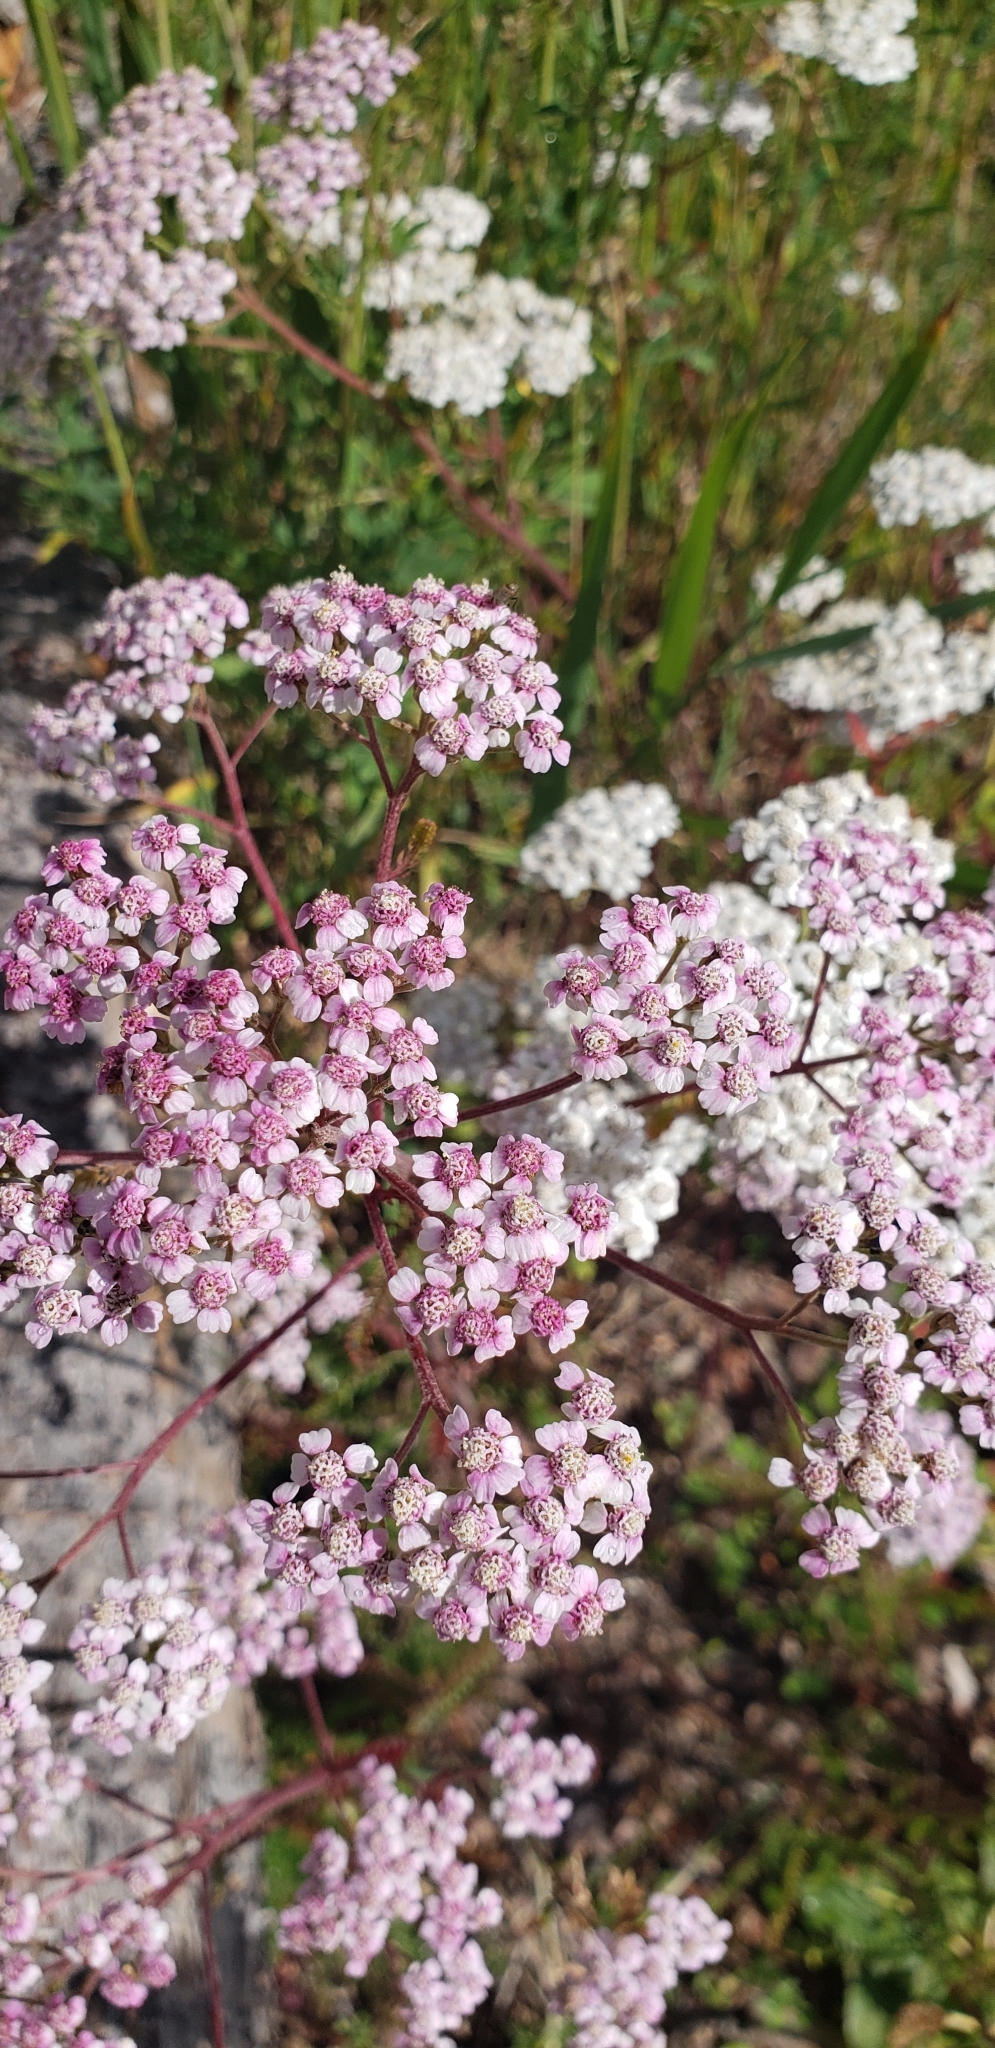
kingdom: Plantae
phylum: Tracheophyta
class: Magnoliopsida
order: Asterales
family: Asteraceae
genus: Achillea
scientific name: Achillea millefolium
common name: Yarrow
